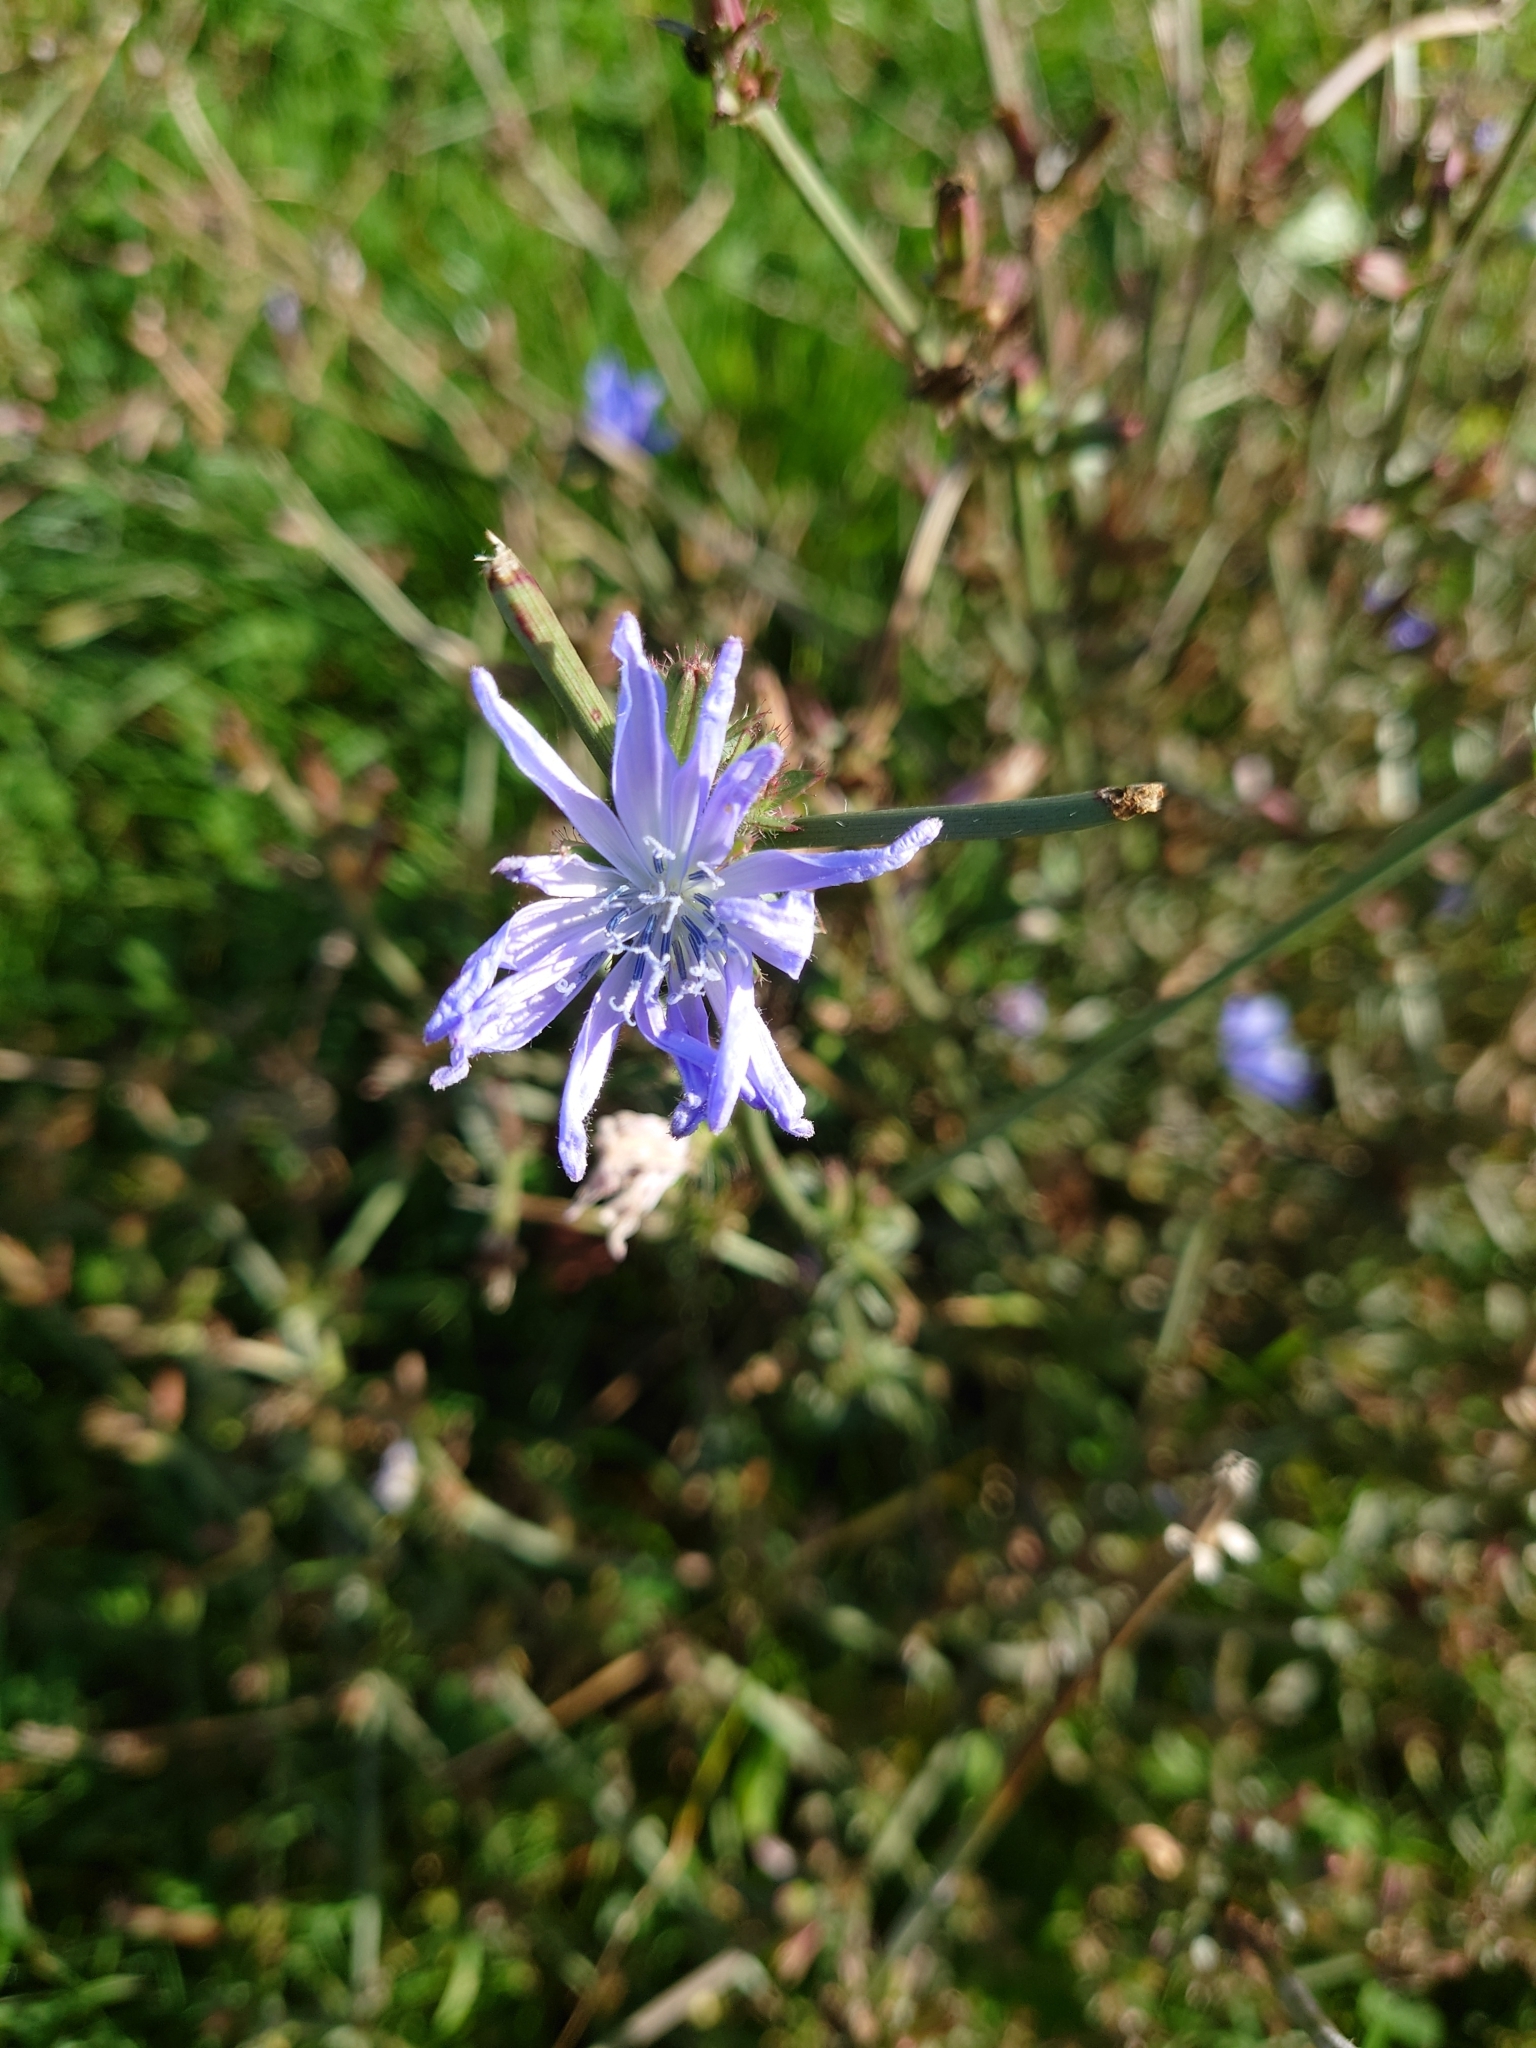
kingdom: Plantae
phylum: Tracheophyta
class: Magnoliopsida
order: Asterales
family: Asteraceae
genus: Cichorium
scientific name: Cichorium intybus
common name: Chicory
